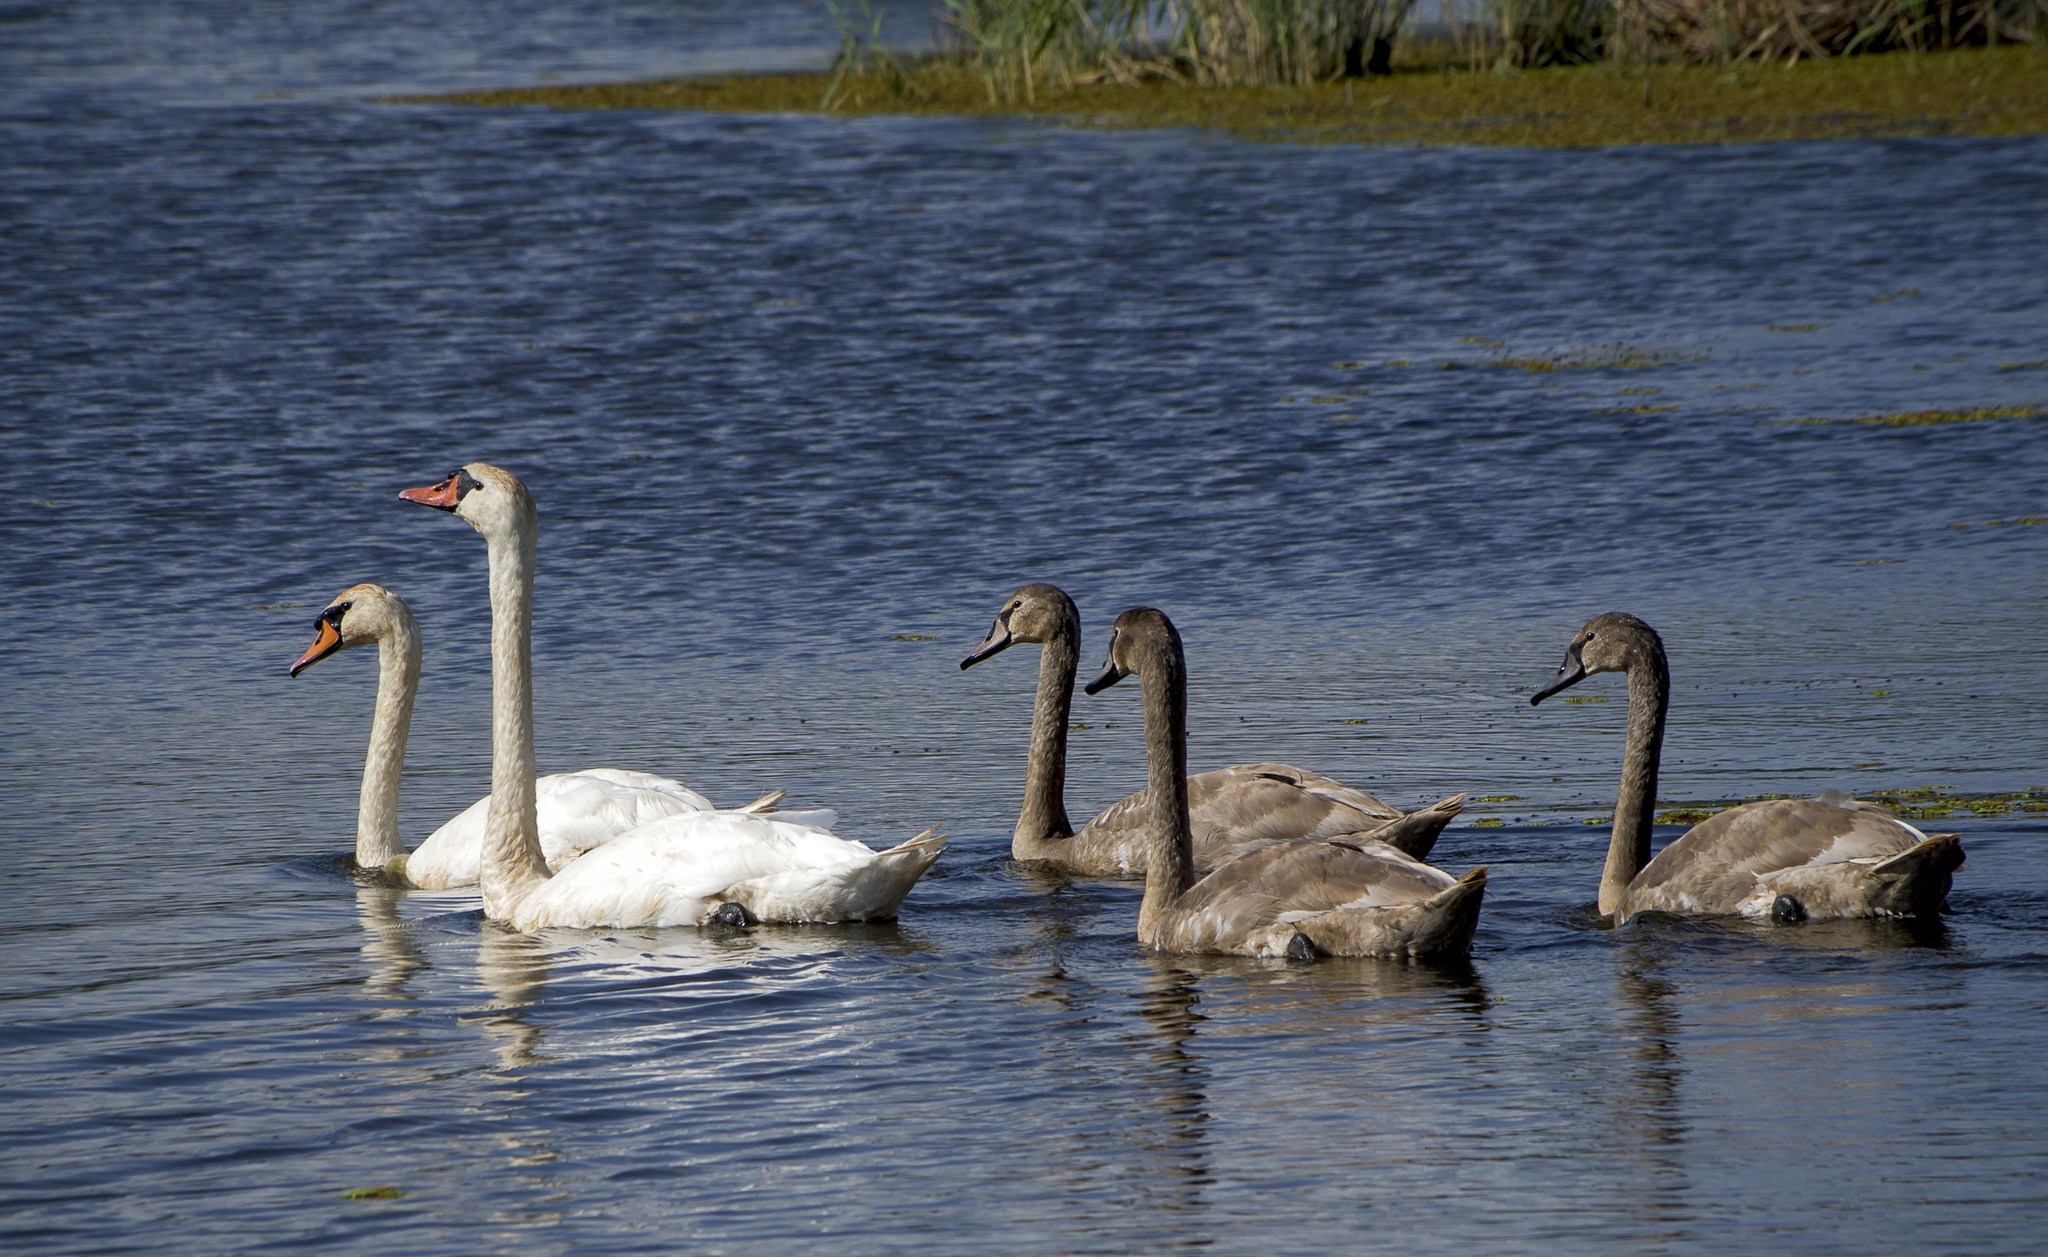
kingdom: Animalia
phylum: Chordata
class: Aves
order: Anseriformes
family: Anatidae
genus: Cygnus
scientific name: Cygnus olor
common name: Mute swan
